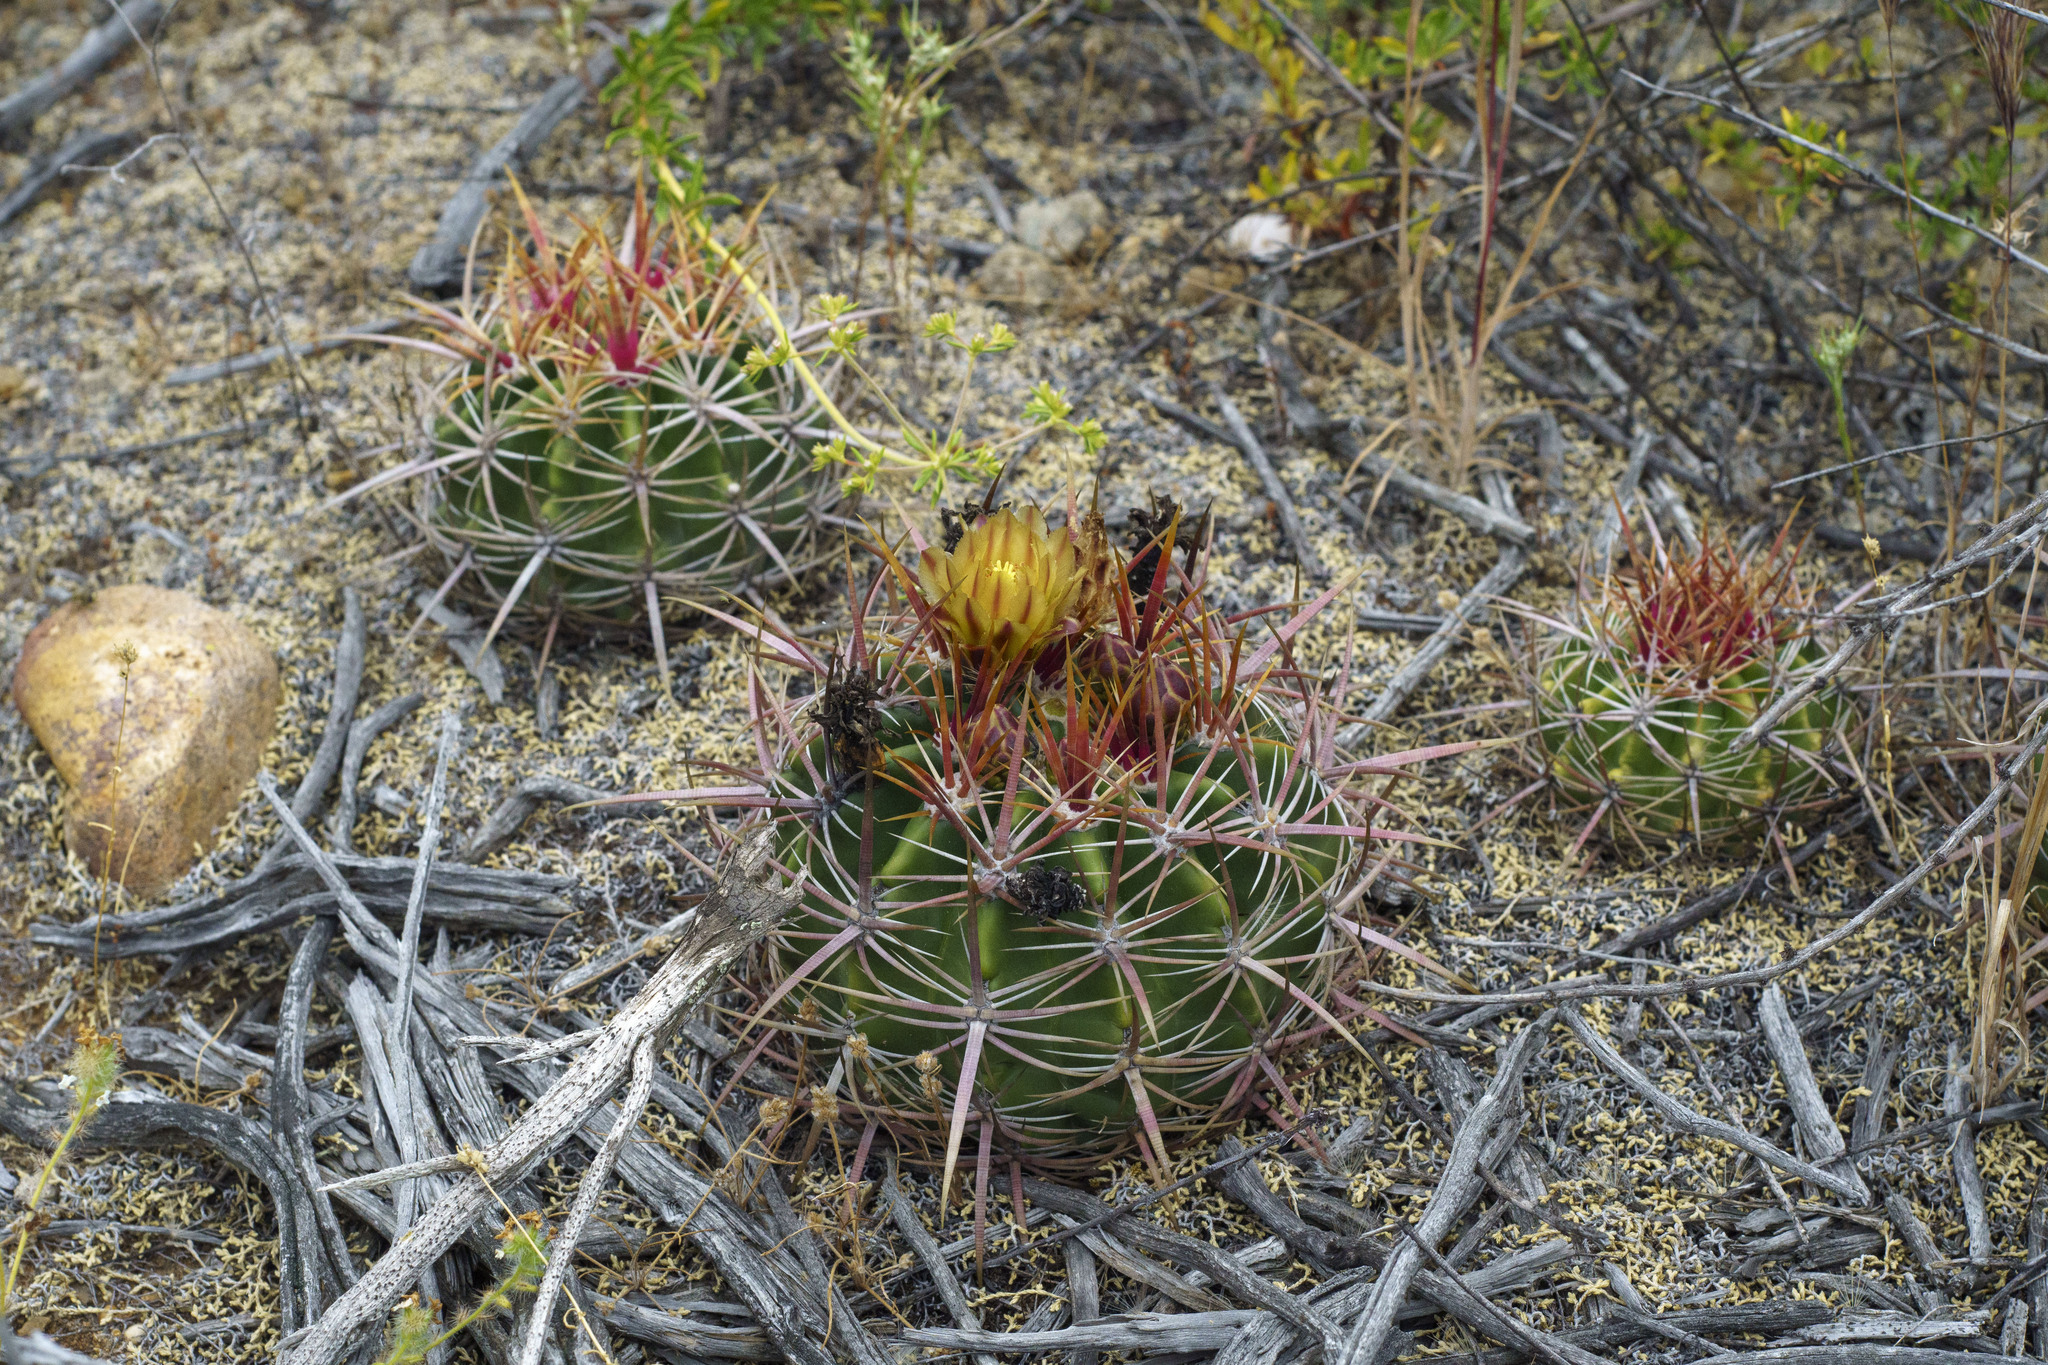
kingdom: Plantae
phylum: Tracheophyta
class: Magnoliopsida
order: Caryophyllales
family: Cactaceae
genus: Ferocactus
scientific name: Ferocactus viridescens
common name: San diego barrel cactus
